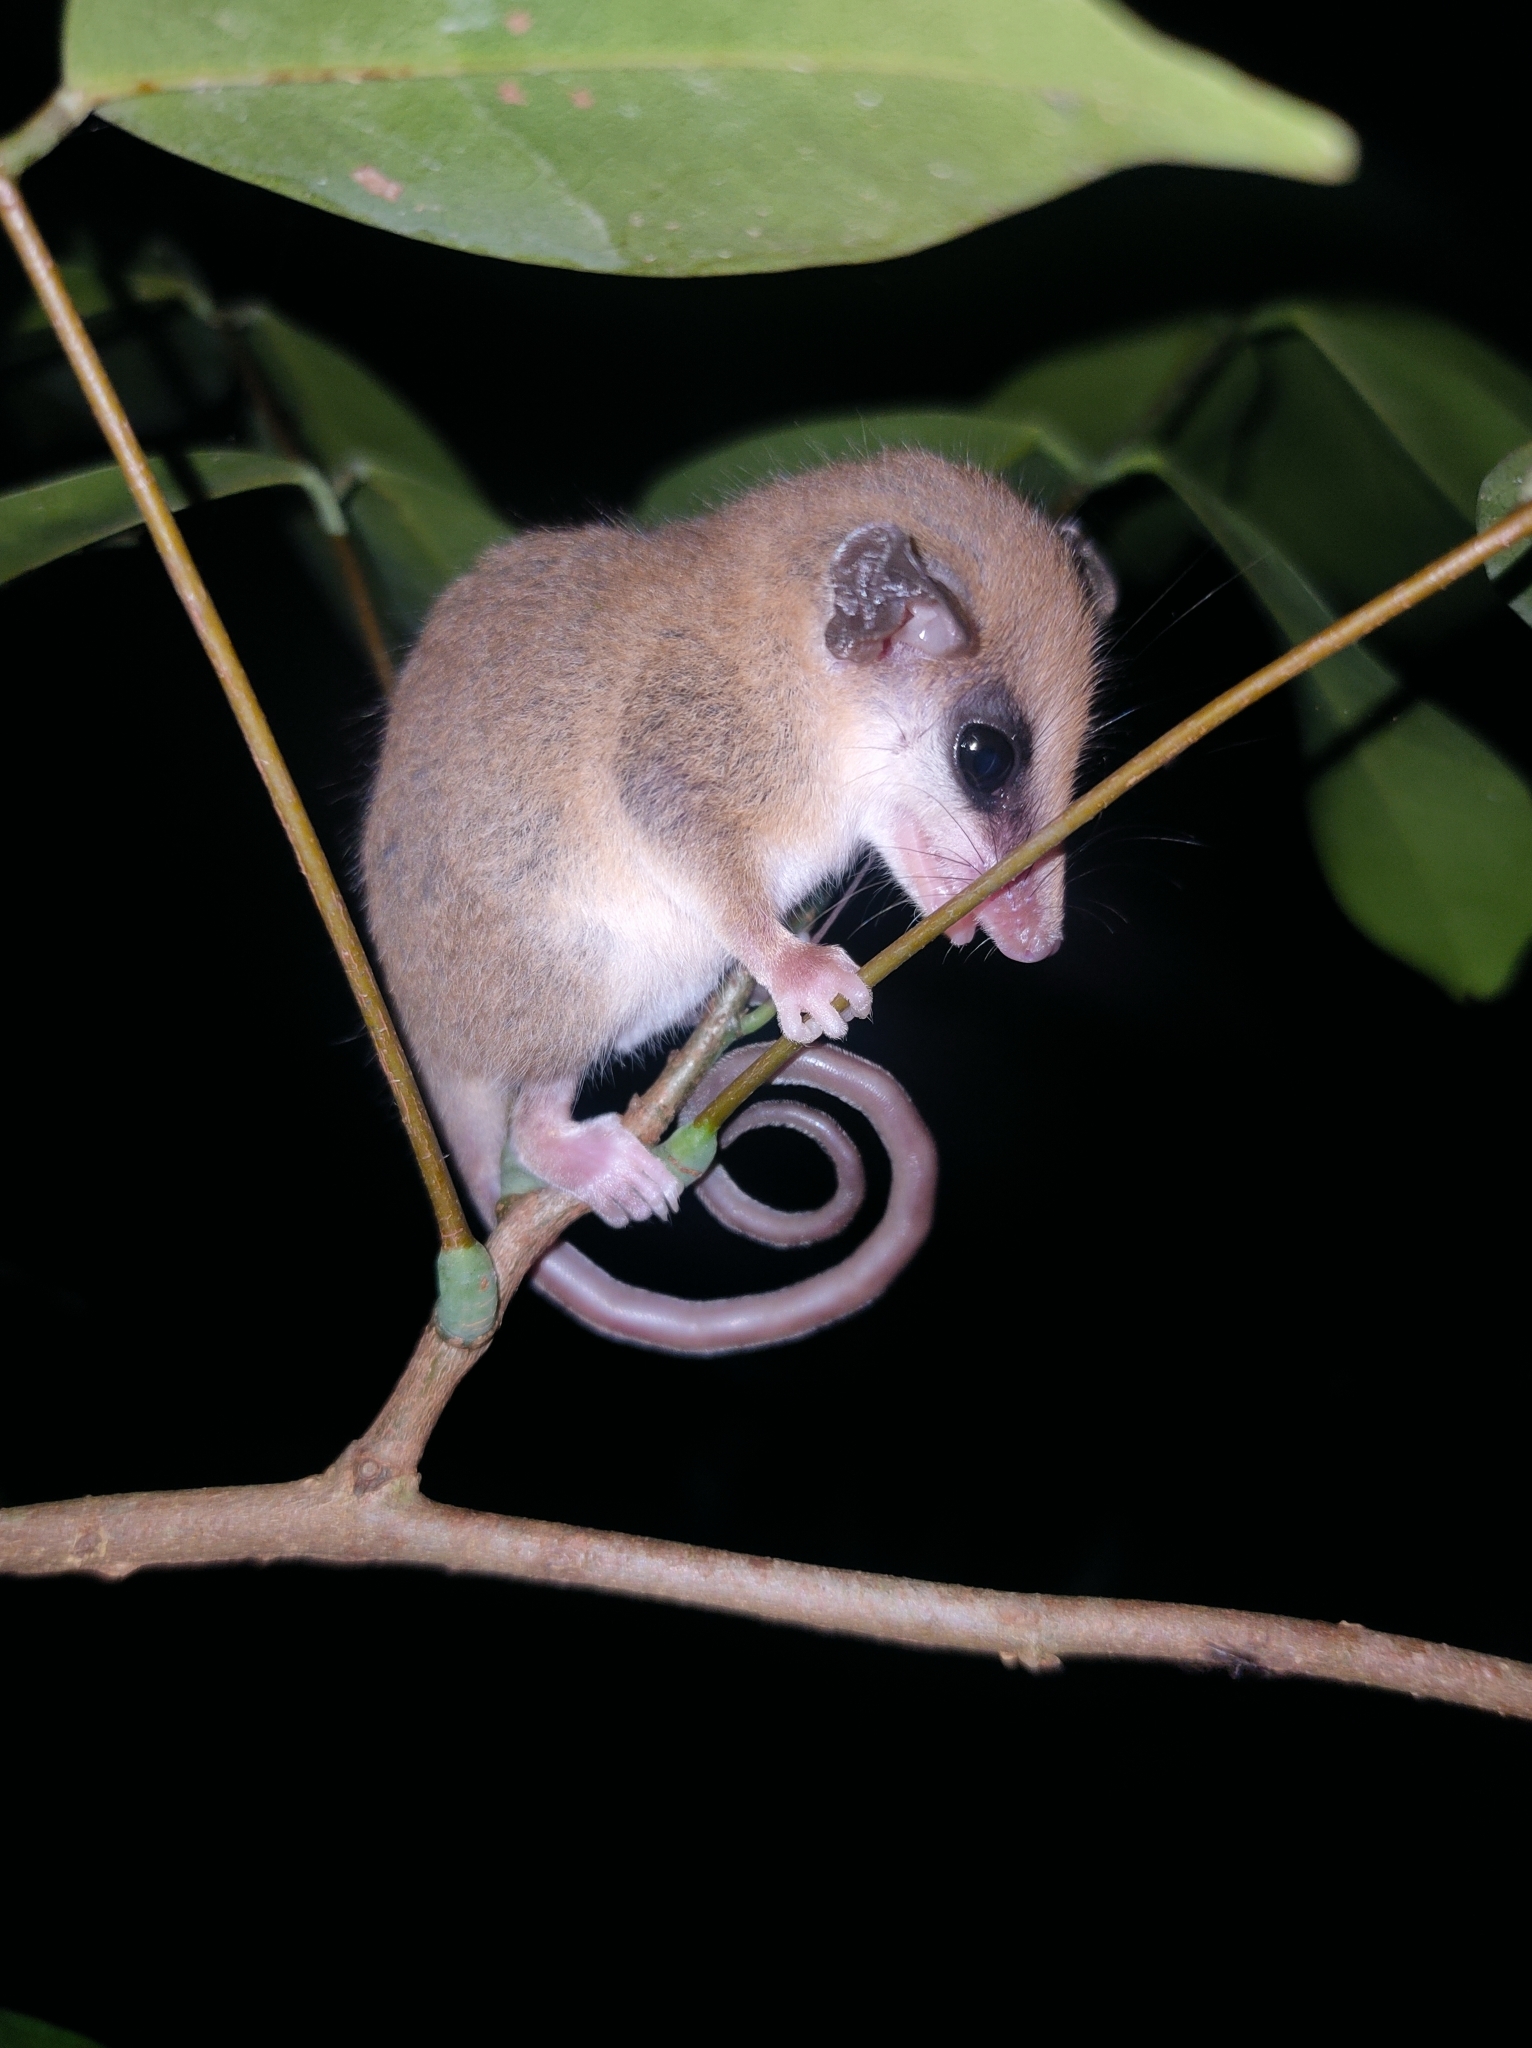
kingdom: Animalia
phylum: Chordata
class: Mammalia
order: Didelphimorphia
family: Didelphidae
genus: Marmosa
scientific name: Marmosa robinsoni
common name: Robinson's mouse opossum
